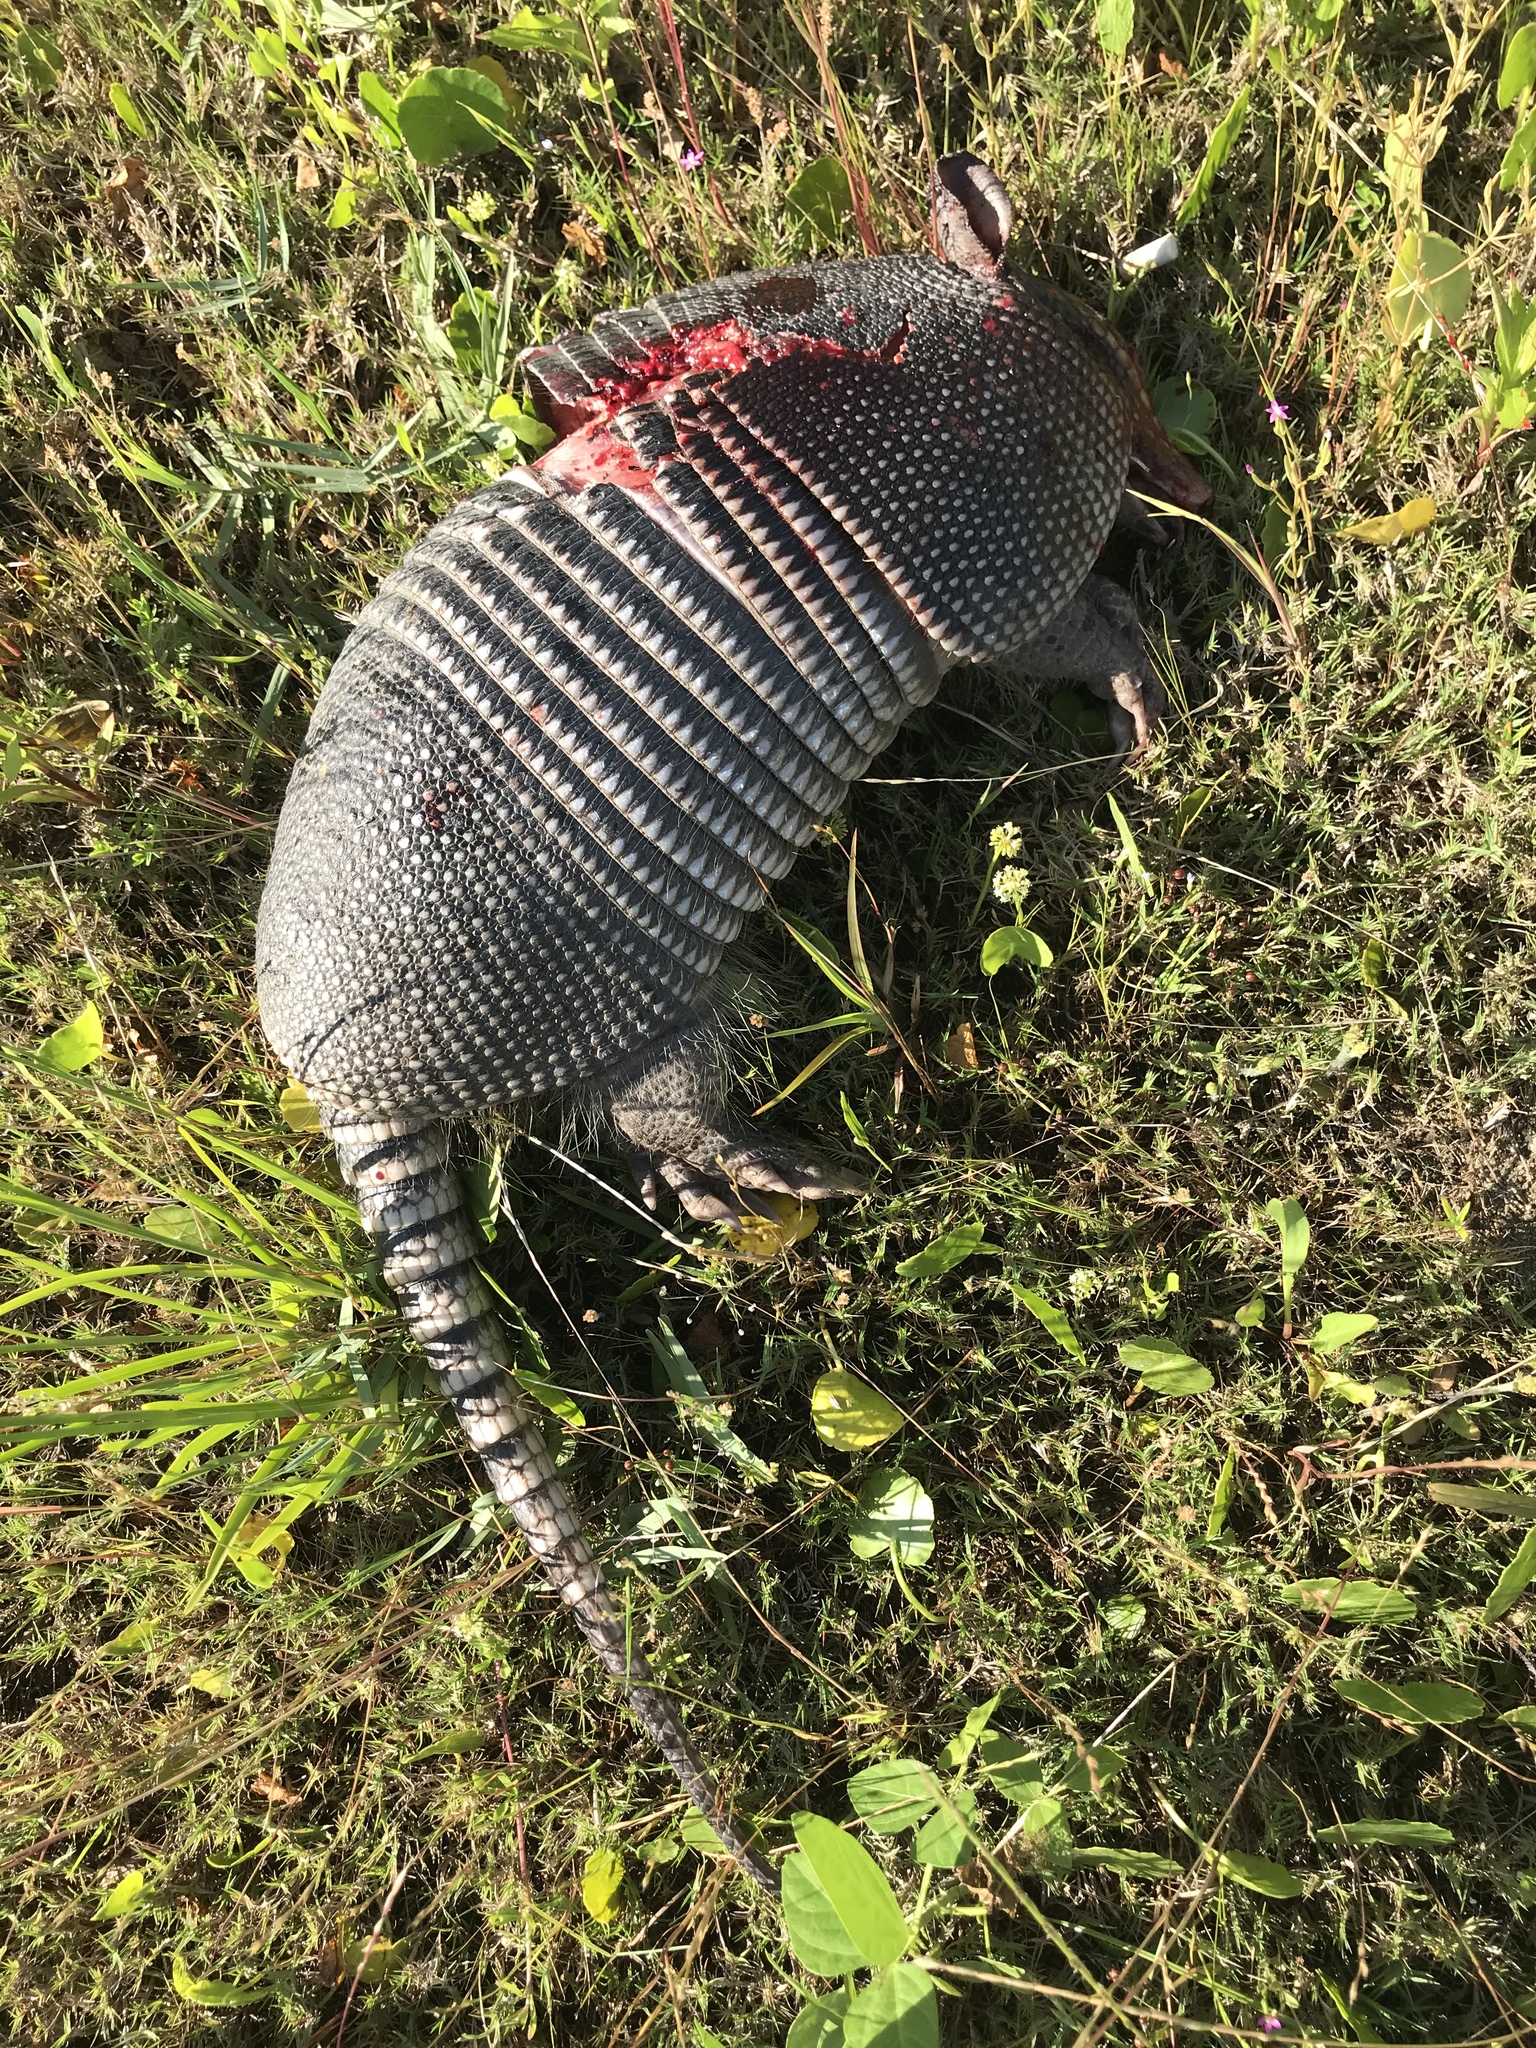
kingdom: Animalia
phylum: Chordata
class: Mammalia
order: Cingulata
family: Dasypodidae
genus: Dasypus
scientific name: Dasypus novemcinctus
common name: Nine-banded armadillo
